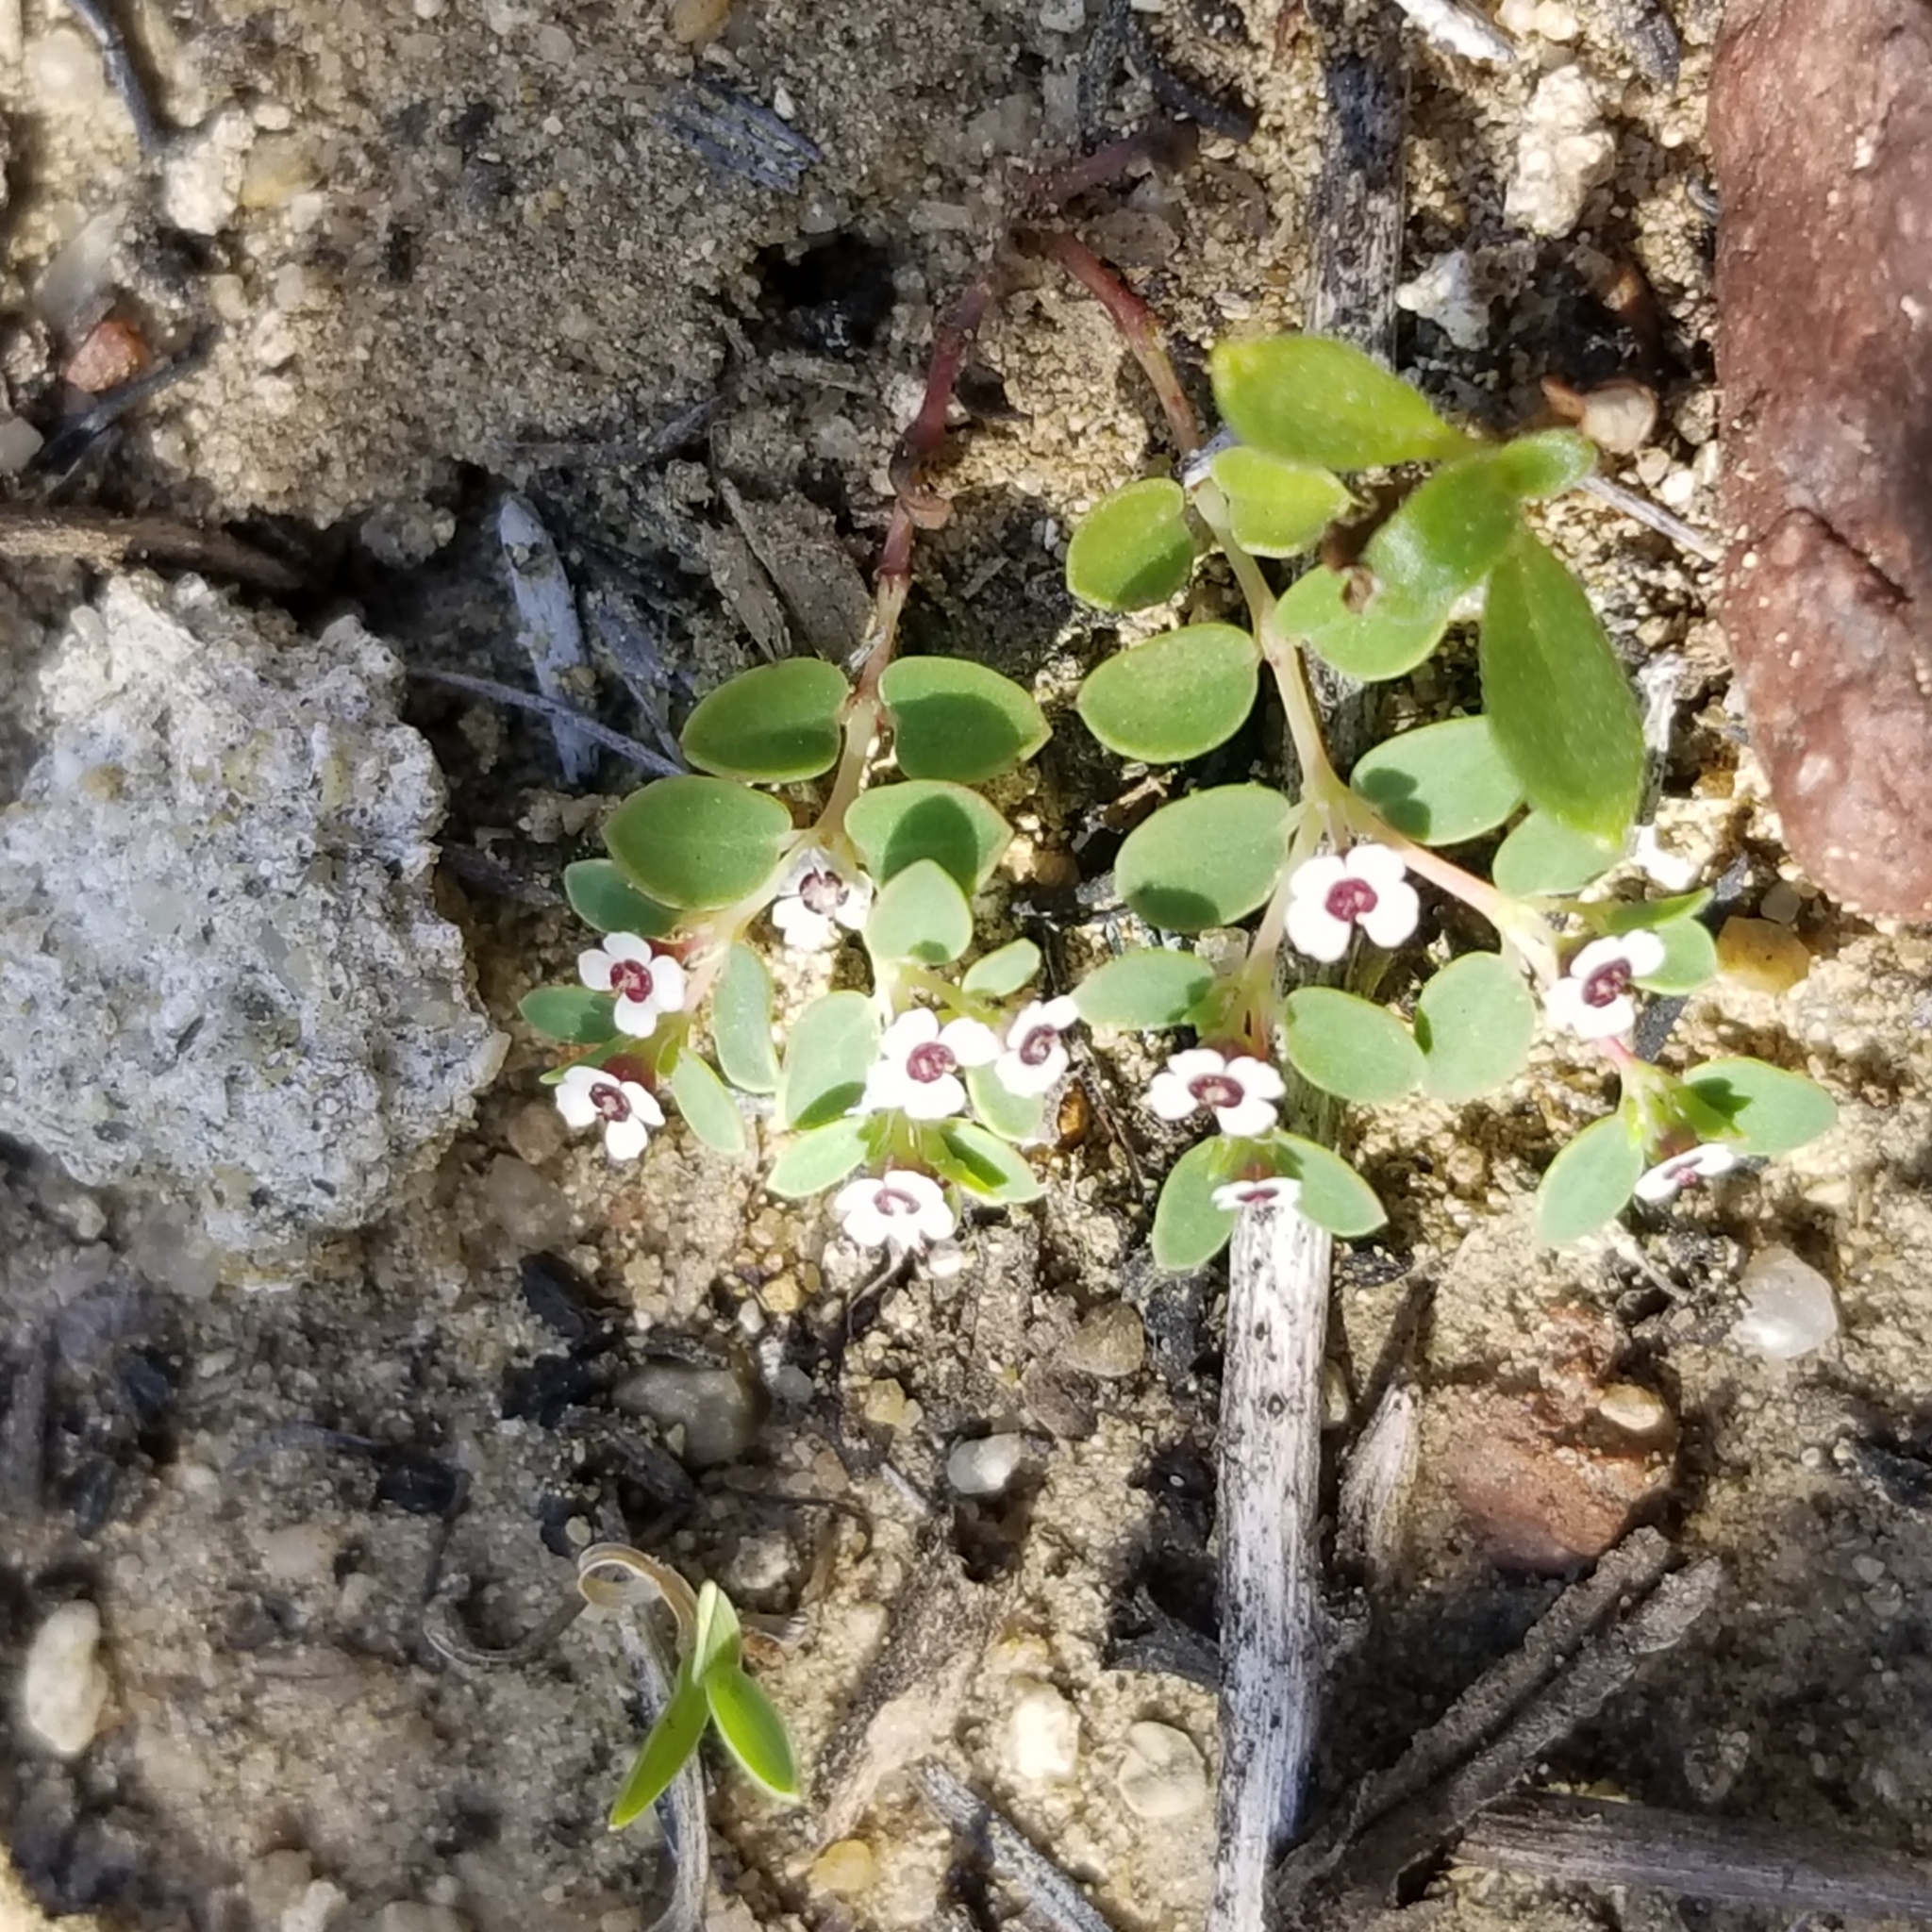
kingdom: Plantae
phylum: Tracheophyta
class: Magnoliopsida
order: Malpighiales
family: Euphorbiaceae
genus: Euphorbia
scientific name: Euphorbia polycarpa
